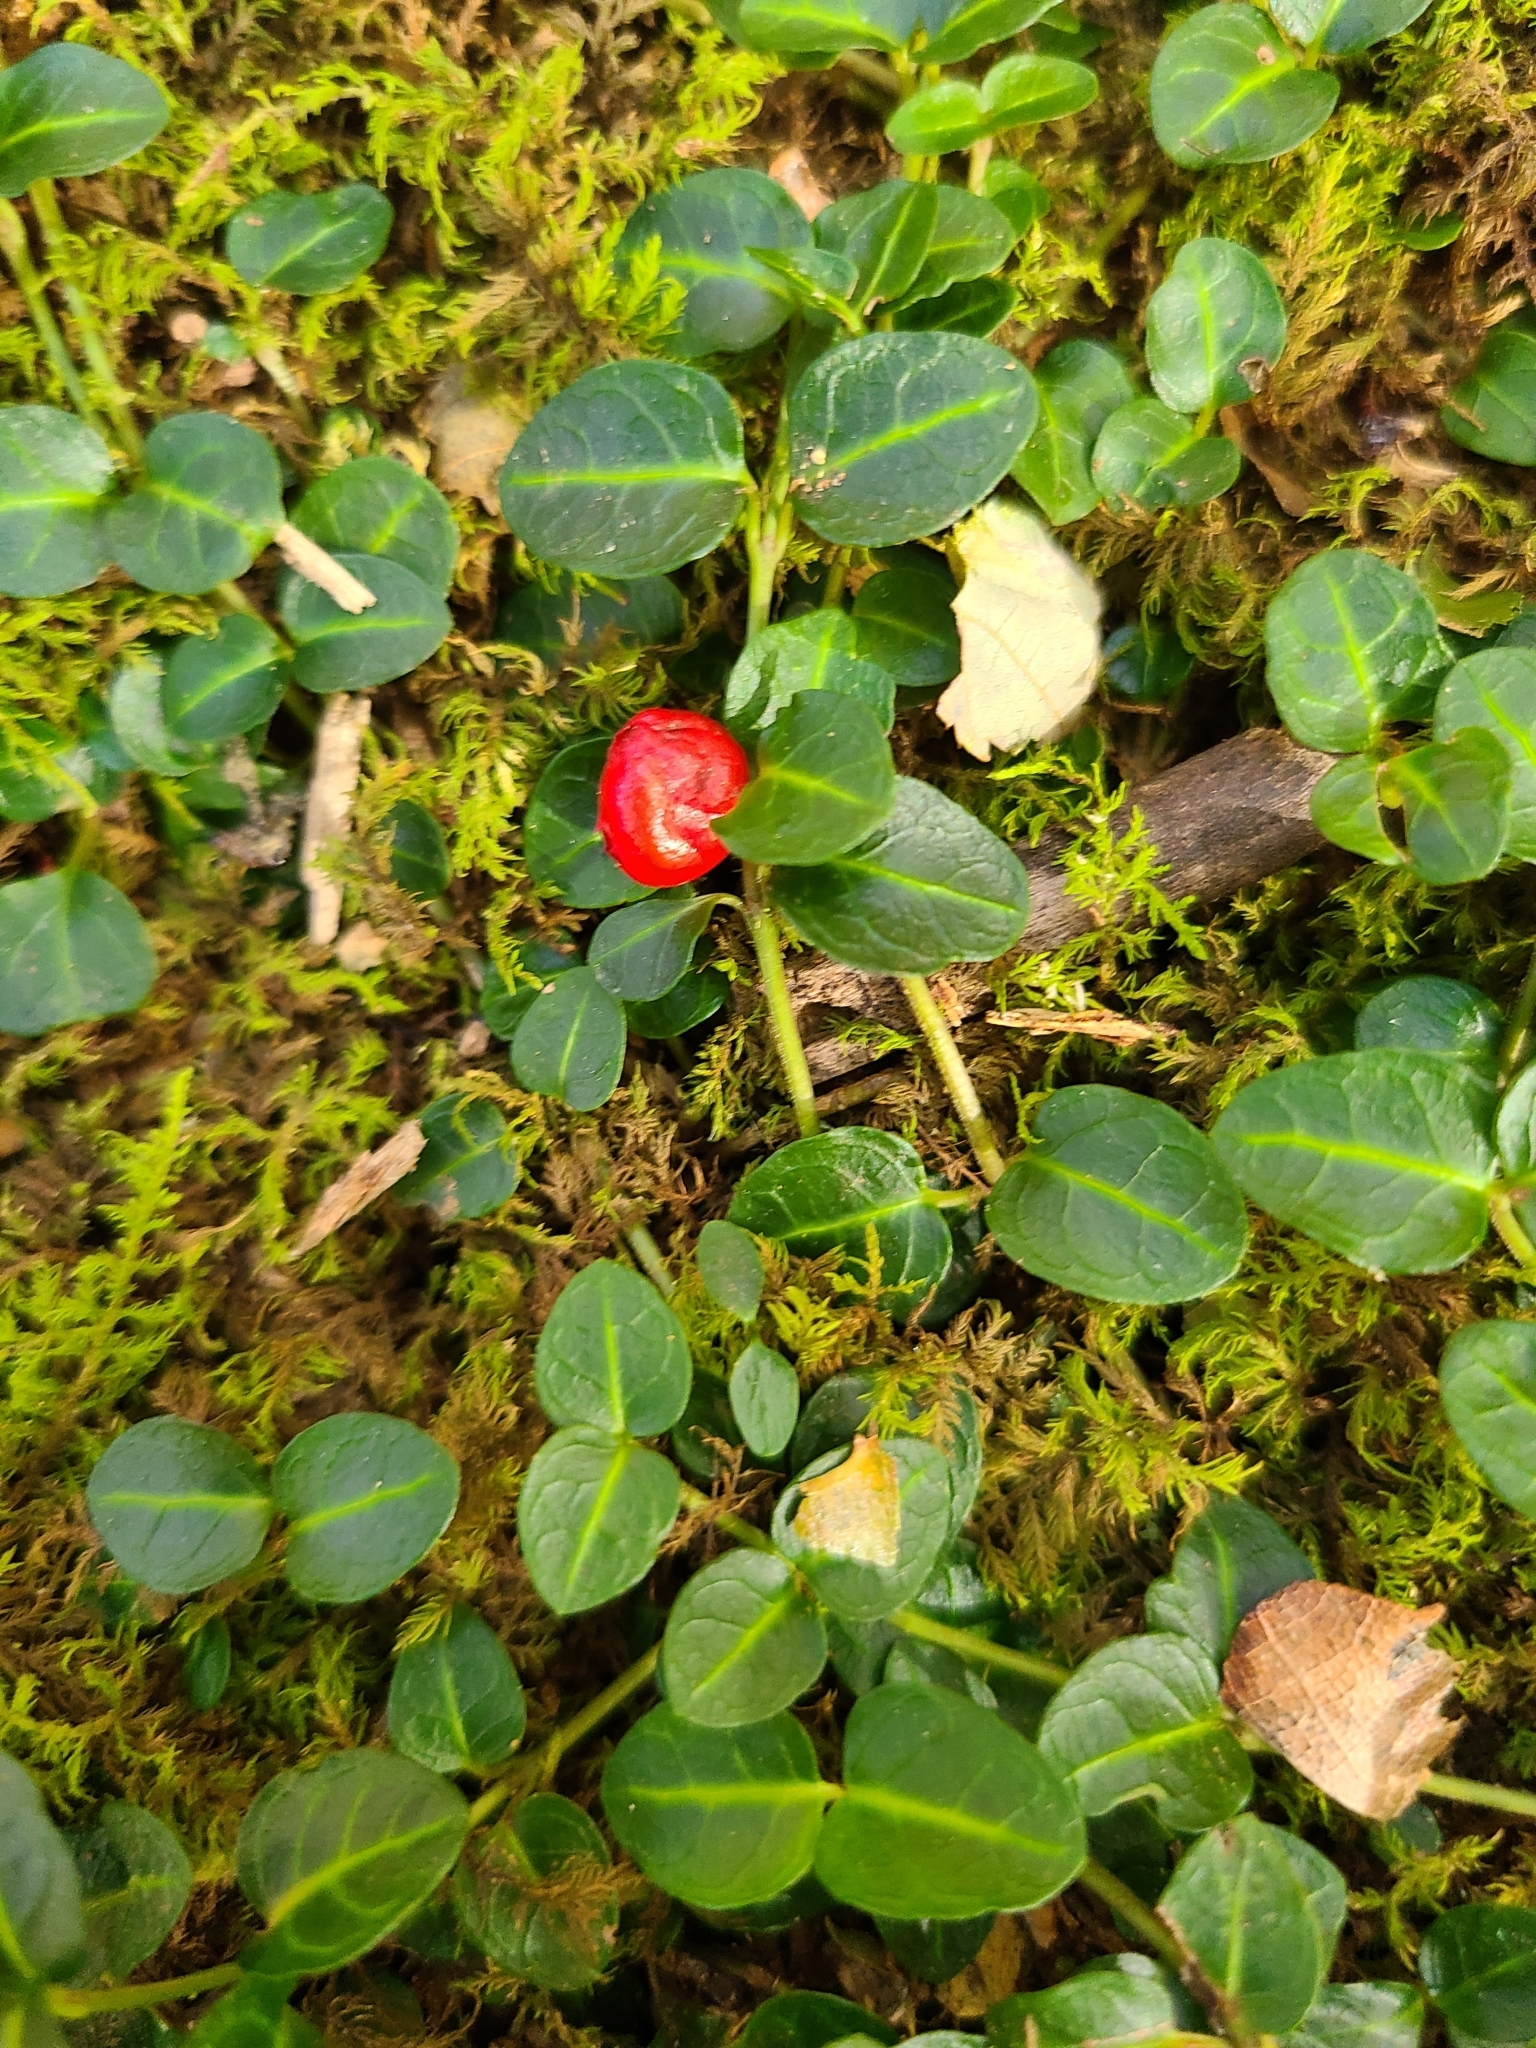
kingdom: Plantae
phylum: Tracheophyta
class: Magnoliopsida
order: Gentianales
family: Rubiaceae
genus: Mitchella
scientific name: Mitchella repens
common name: Partridge-berry
